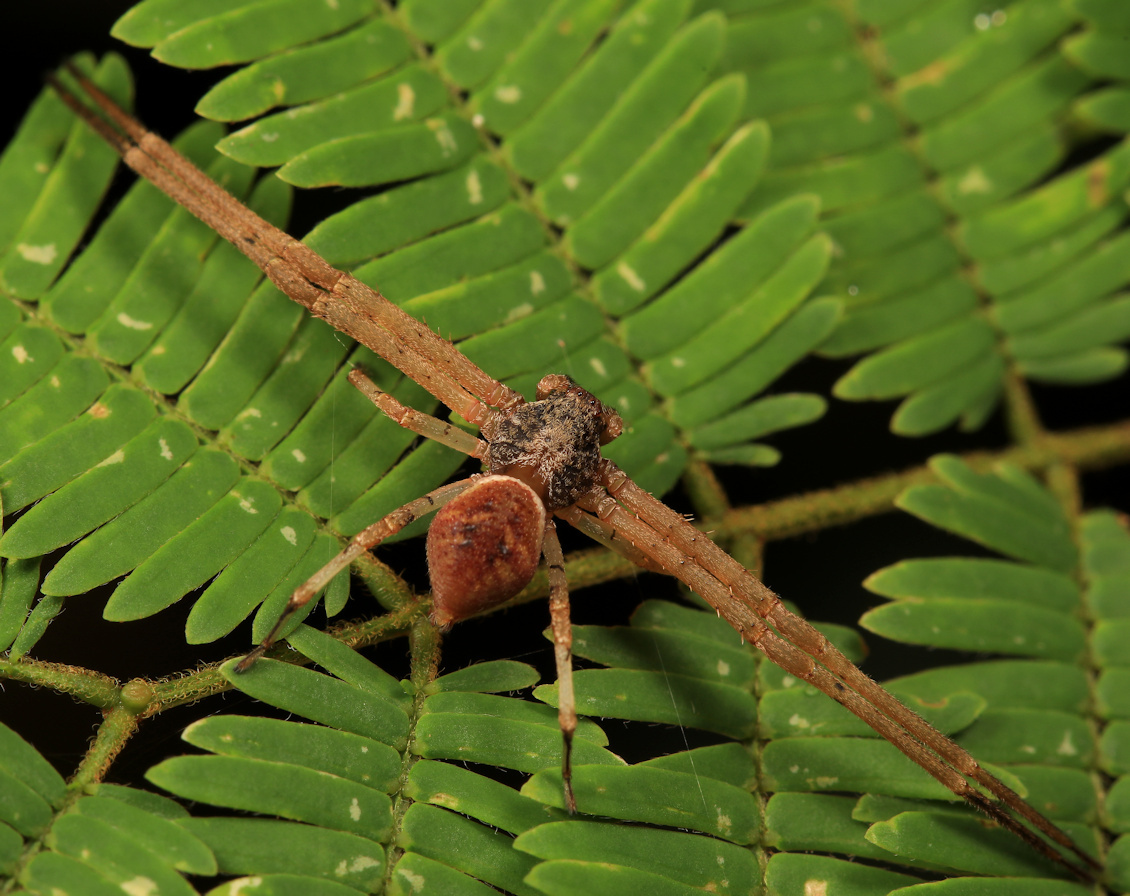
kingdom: Animalia
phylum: Arthropoda
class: Arachnida
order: Araneae
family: Thomisidae
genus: Geraesta
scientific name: Geraesta congoensis
